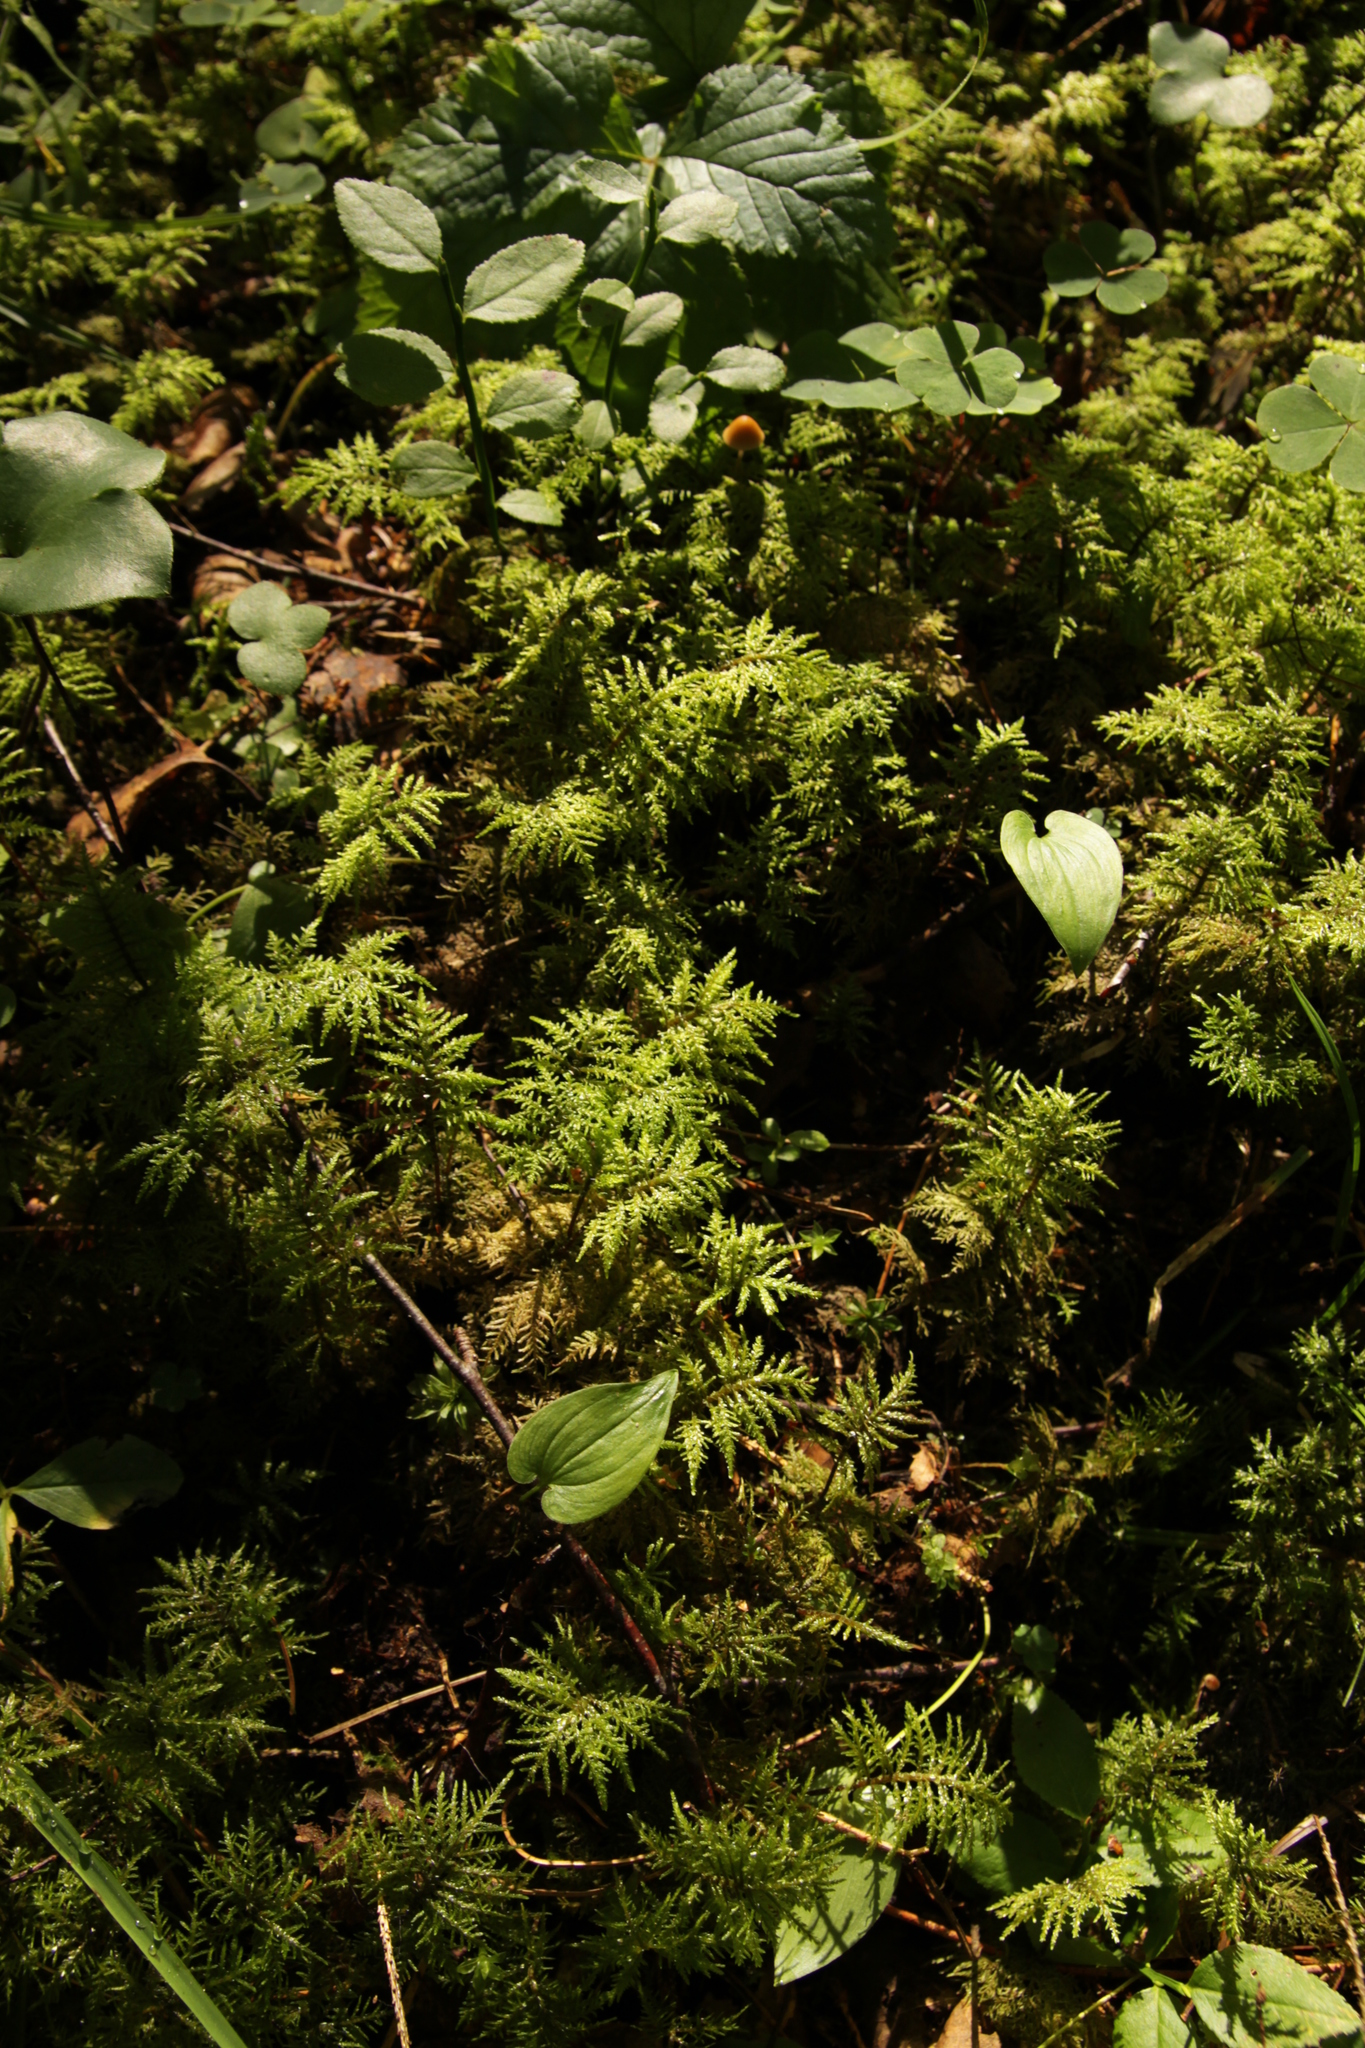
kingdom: Plantae
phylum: Bryophyta
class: Bryopsida
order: Hypnales
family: Hylocomiaceae
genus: Hylocomium
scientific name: Hylocomium splendens
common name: Stairstep moss
